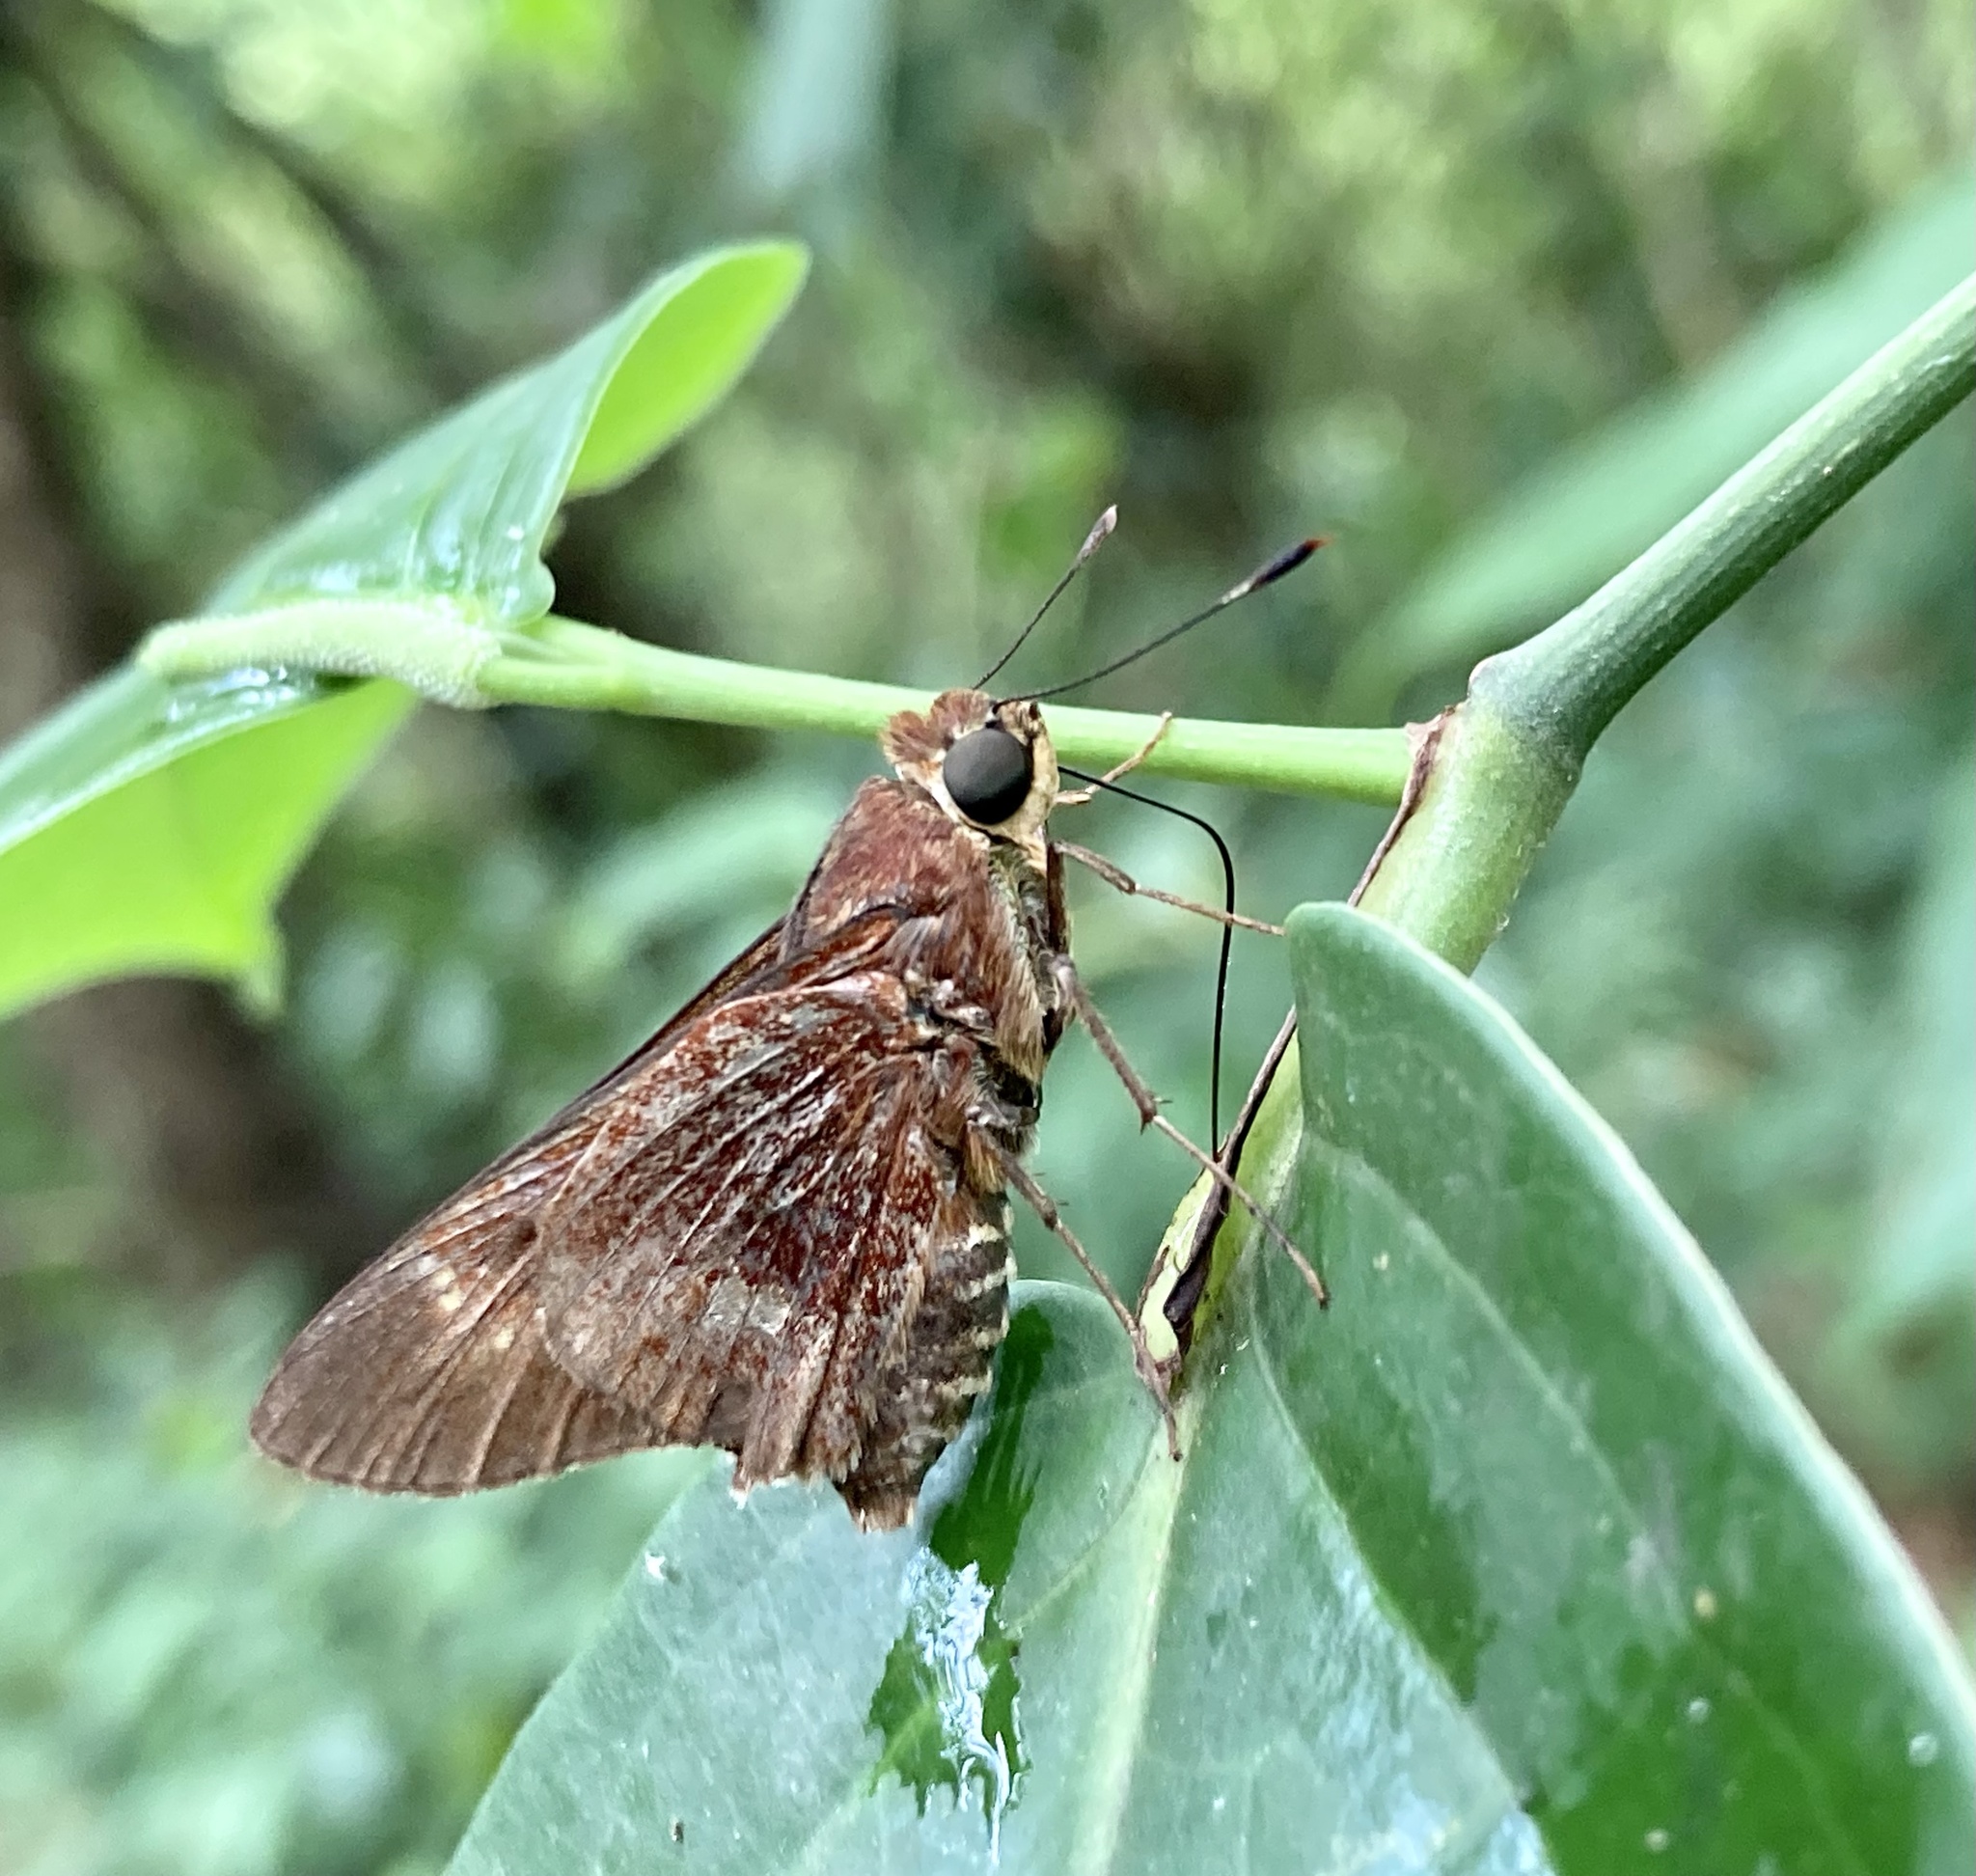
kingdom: Animalia
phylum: Arthropoda
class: Insecta
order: Lepidoptera
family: Hesperiidae
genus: Decinea
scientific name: Decinea decinea
